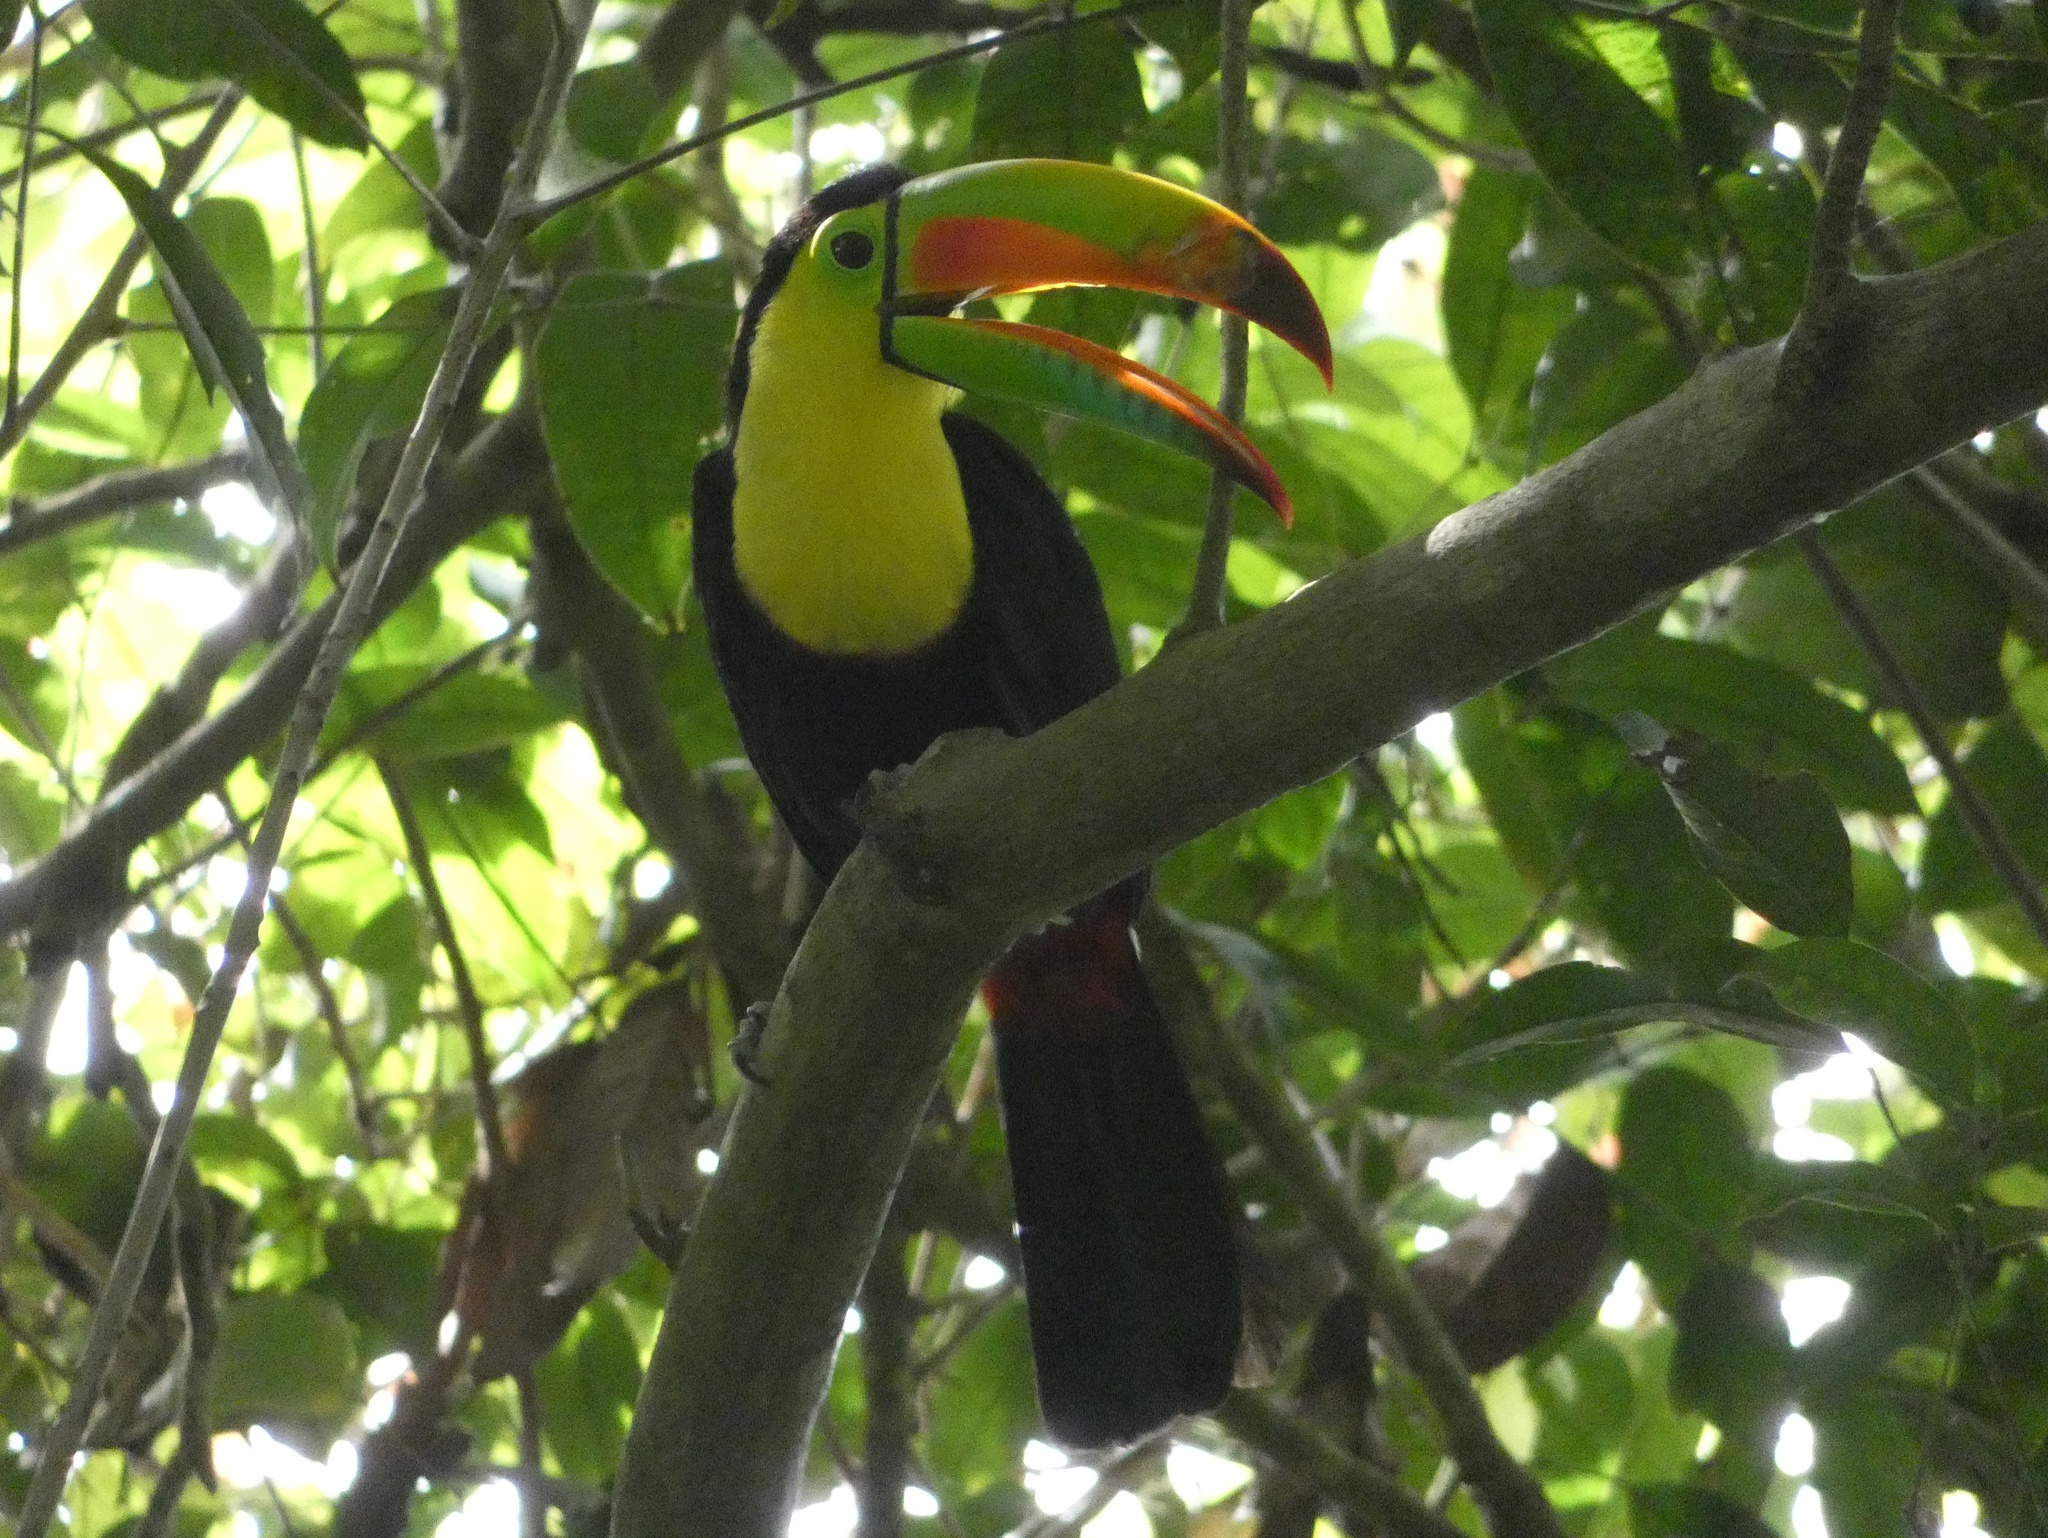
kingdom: Animalia
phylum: Chordata
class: Aves
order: Piciformes
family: Ramphastidae
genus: Ramphastos
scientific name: Ramphastos sulfuratus
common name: Keel-billed toucan
